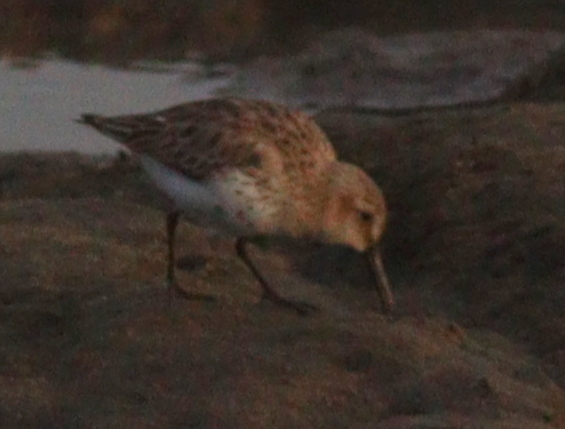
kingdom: Animalia
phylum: Chordata
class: Aves
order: Charadriiformes
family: Scolopacidae
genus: Calidris
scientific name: Calidris alpina
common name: Dunlin
